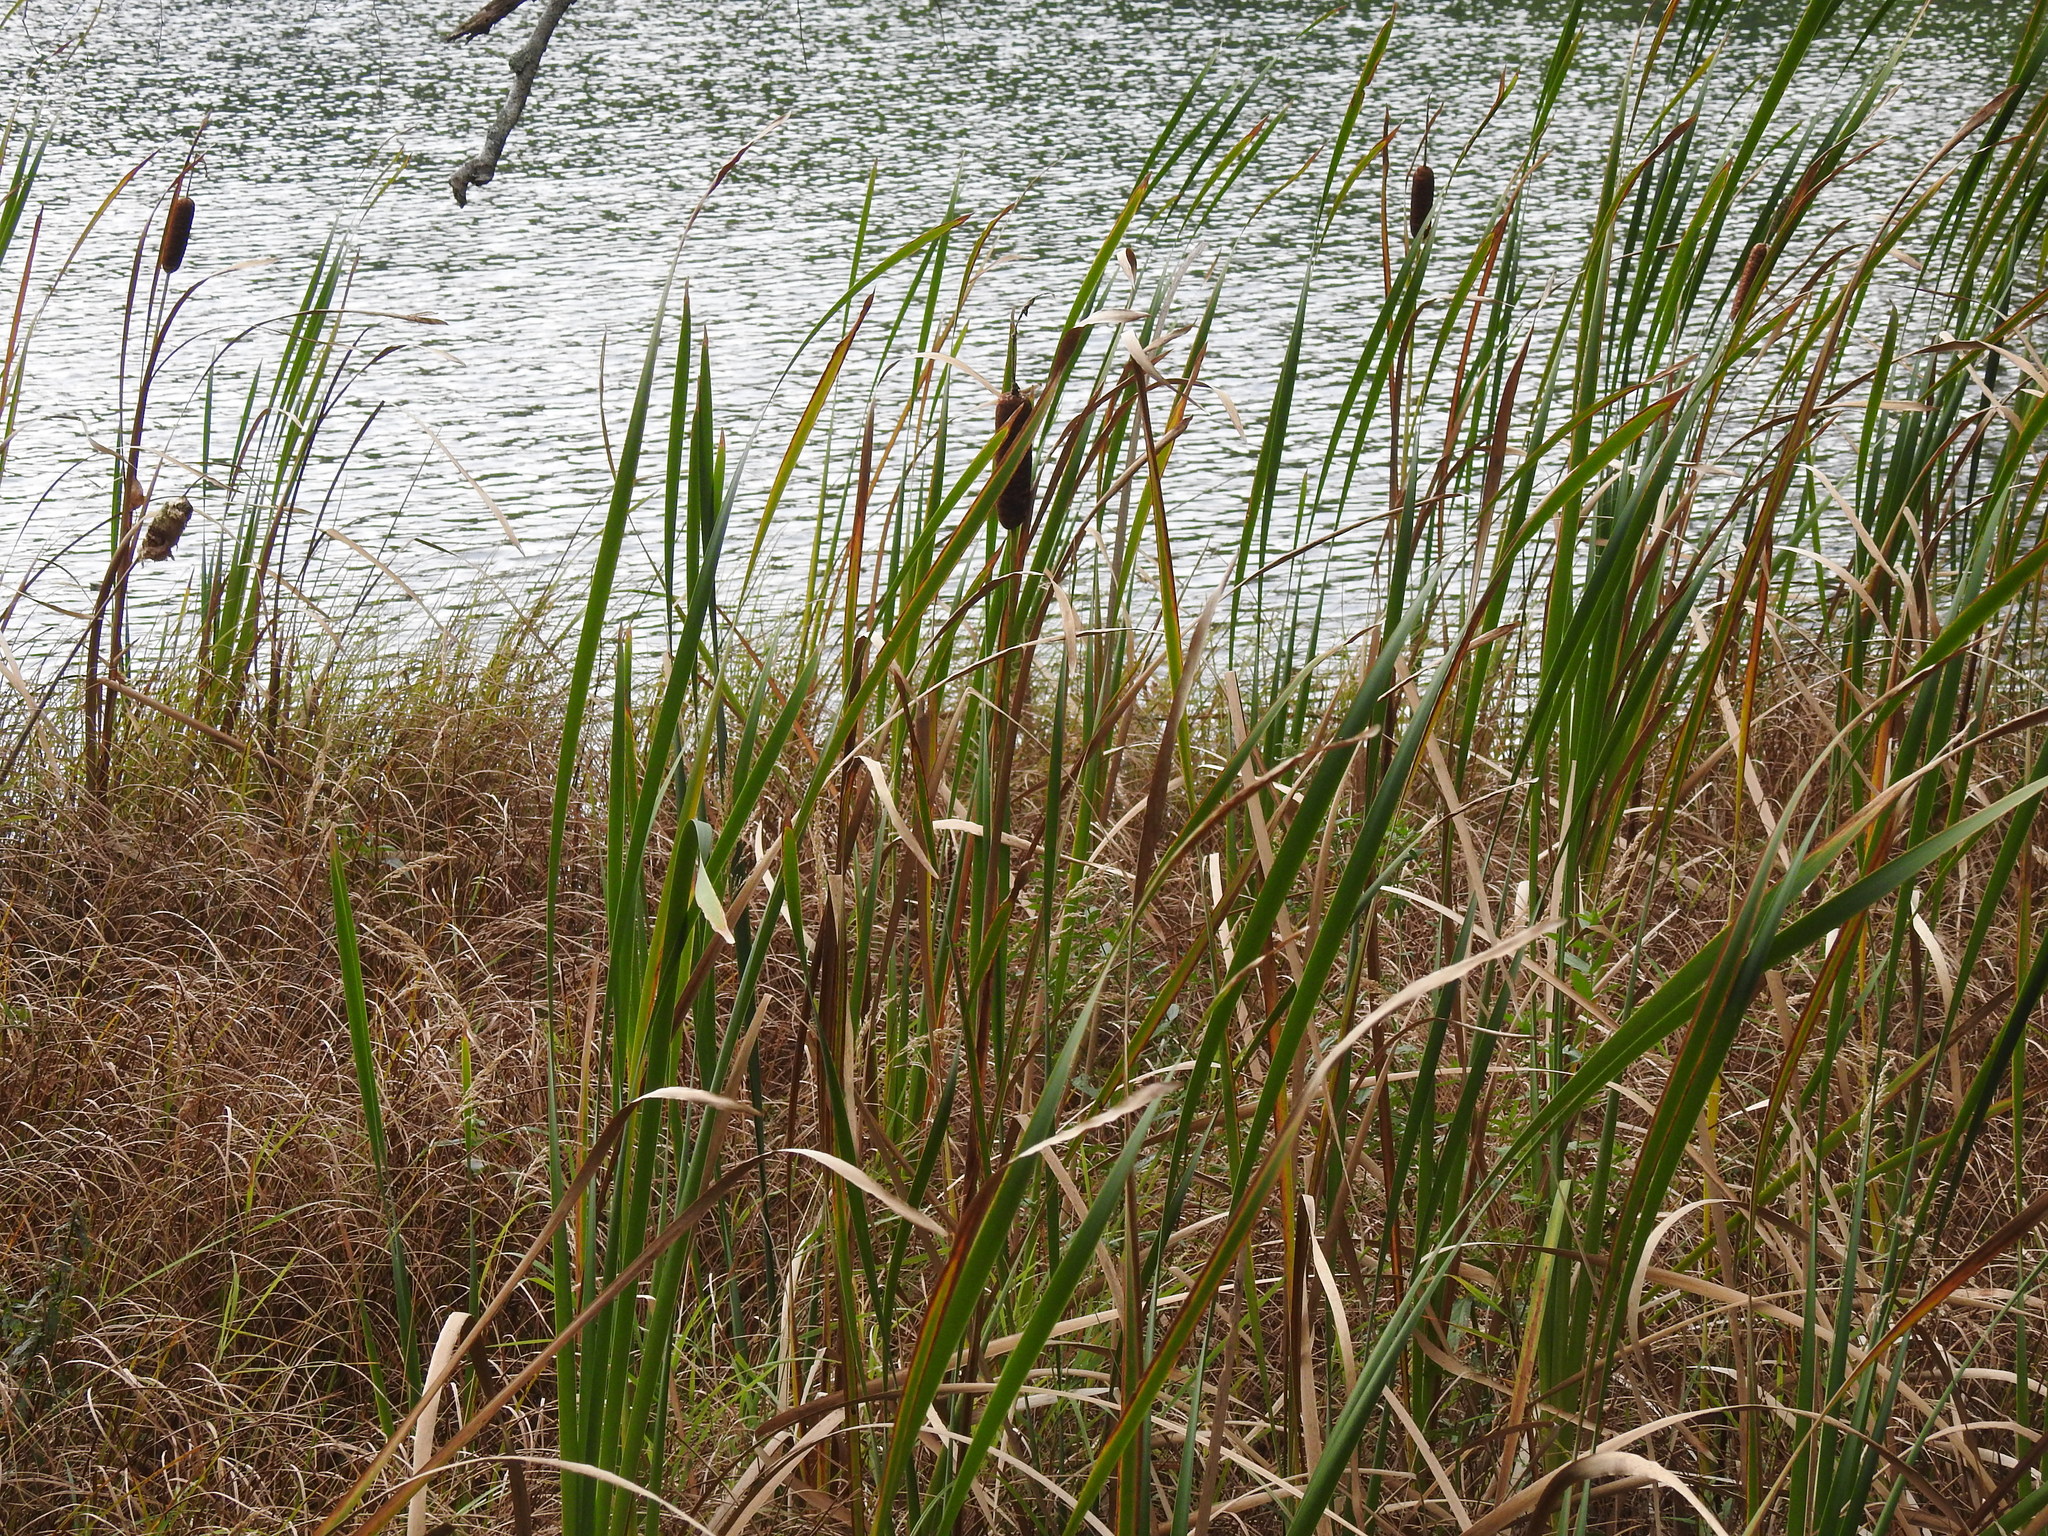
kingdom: Plantae
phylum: Tracheophyta
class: Liliopsida
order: Poales
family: Typhaceae
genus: Typha
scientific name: Typha latifolia
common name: Broadleaf cattail
